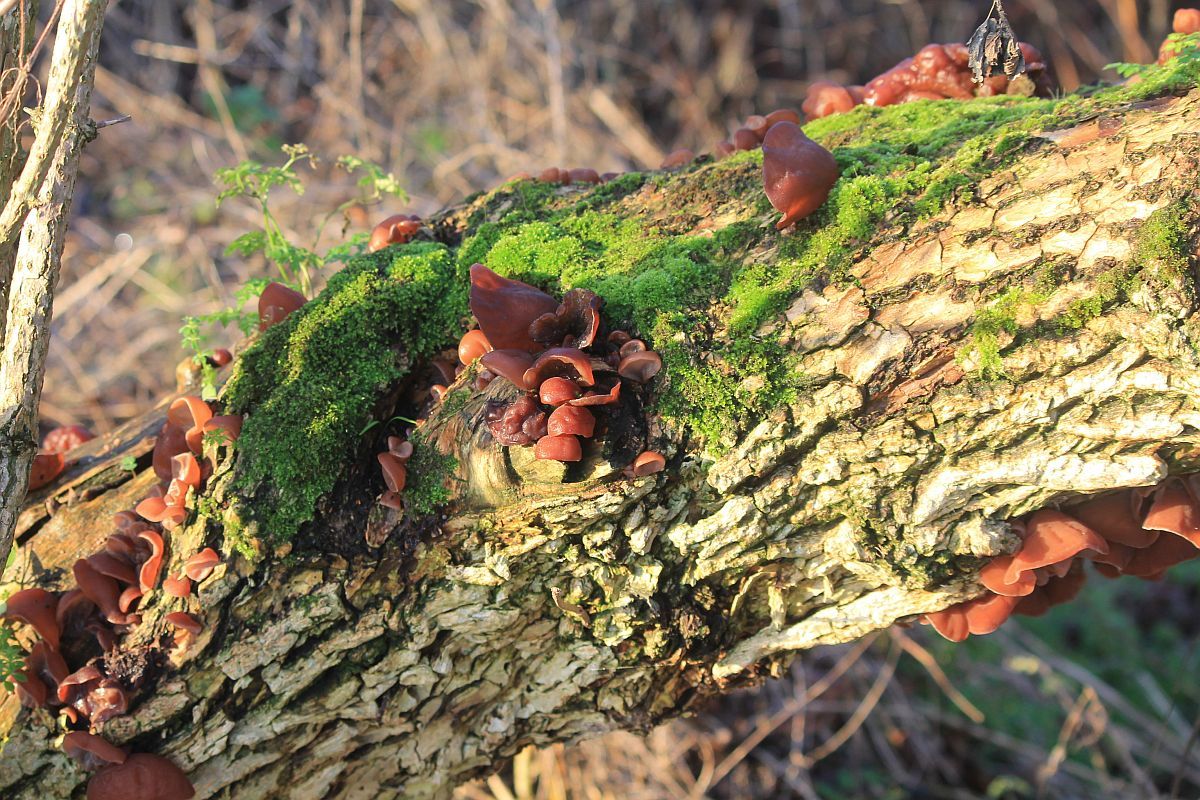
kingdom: Fungi
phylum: Basidiomycota
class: Agaricomycetes
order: Auriculariales
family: Auriculariaceae
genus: Auricularia
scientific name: Auricularia auricula-judae
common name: Jelly ear
